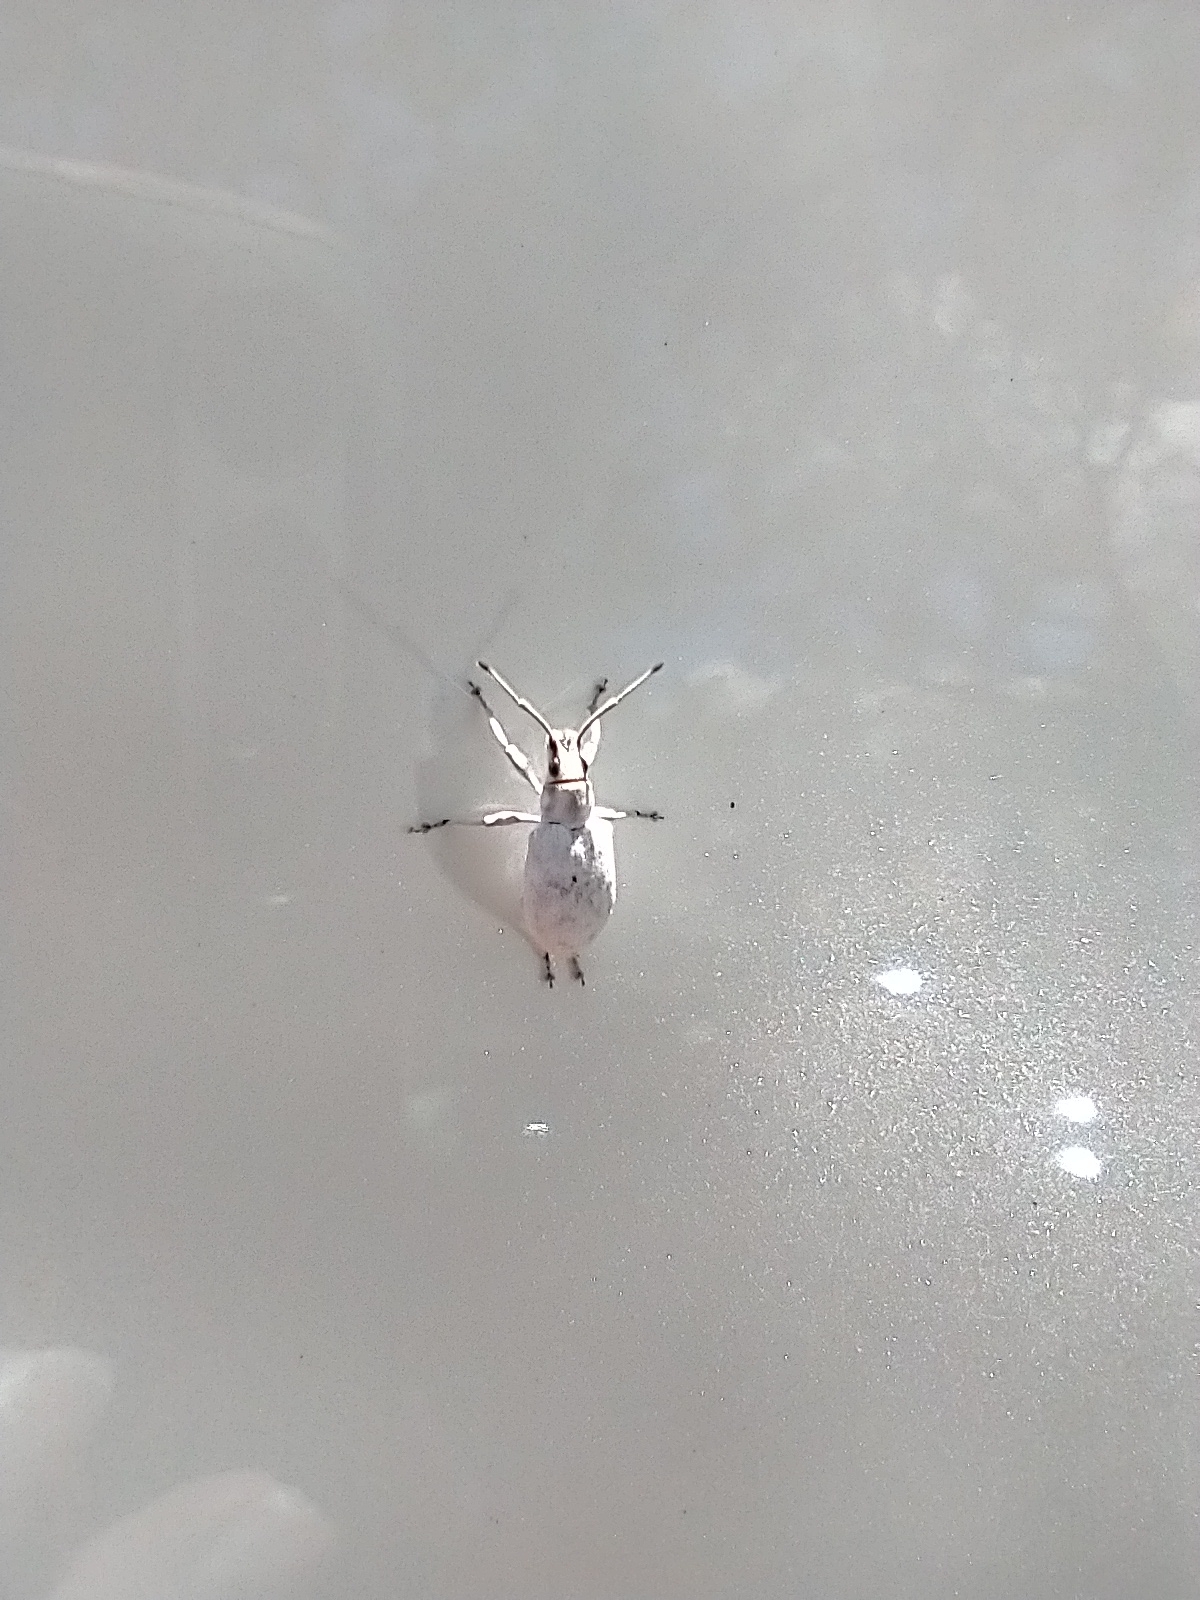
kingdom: Animalia
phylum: Arthropoda
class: Insecta
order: Coleoptera
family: Curculionidae
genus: Myllocerus
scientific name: Myllocerus undecimpustulatus
